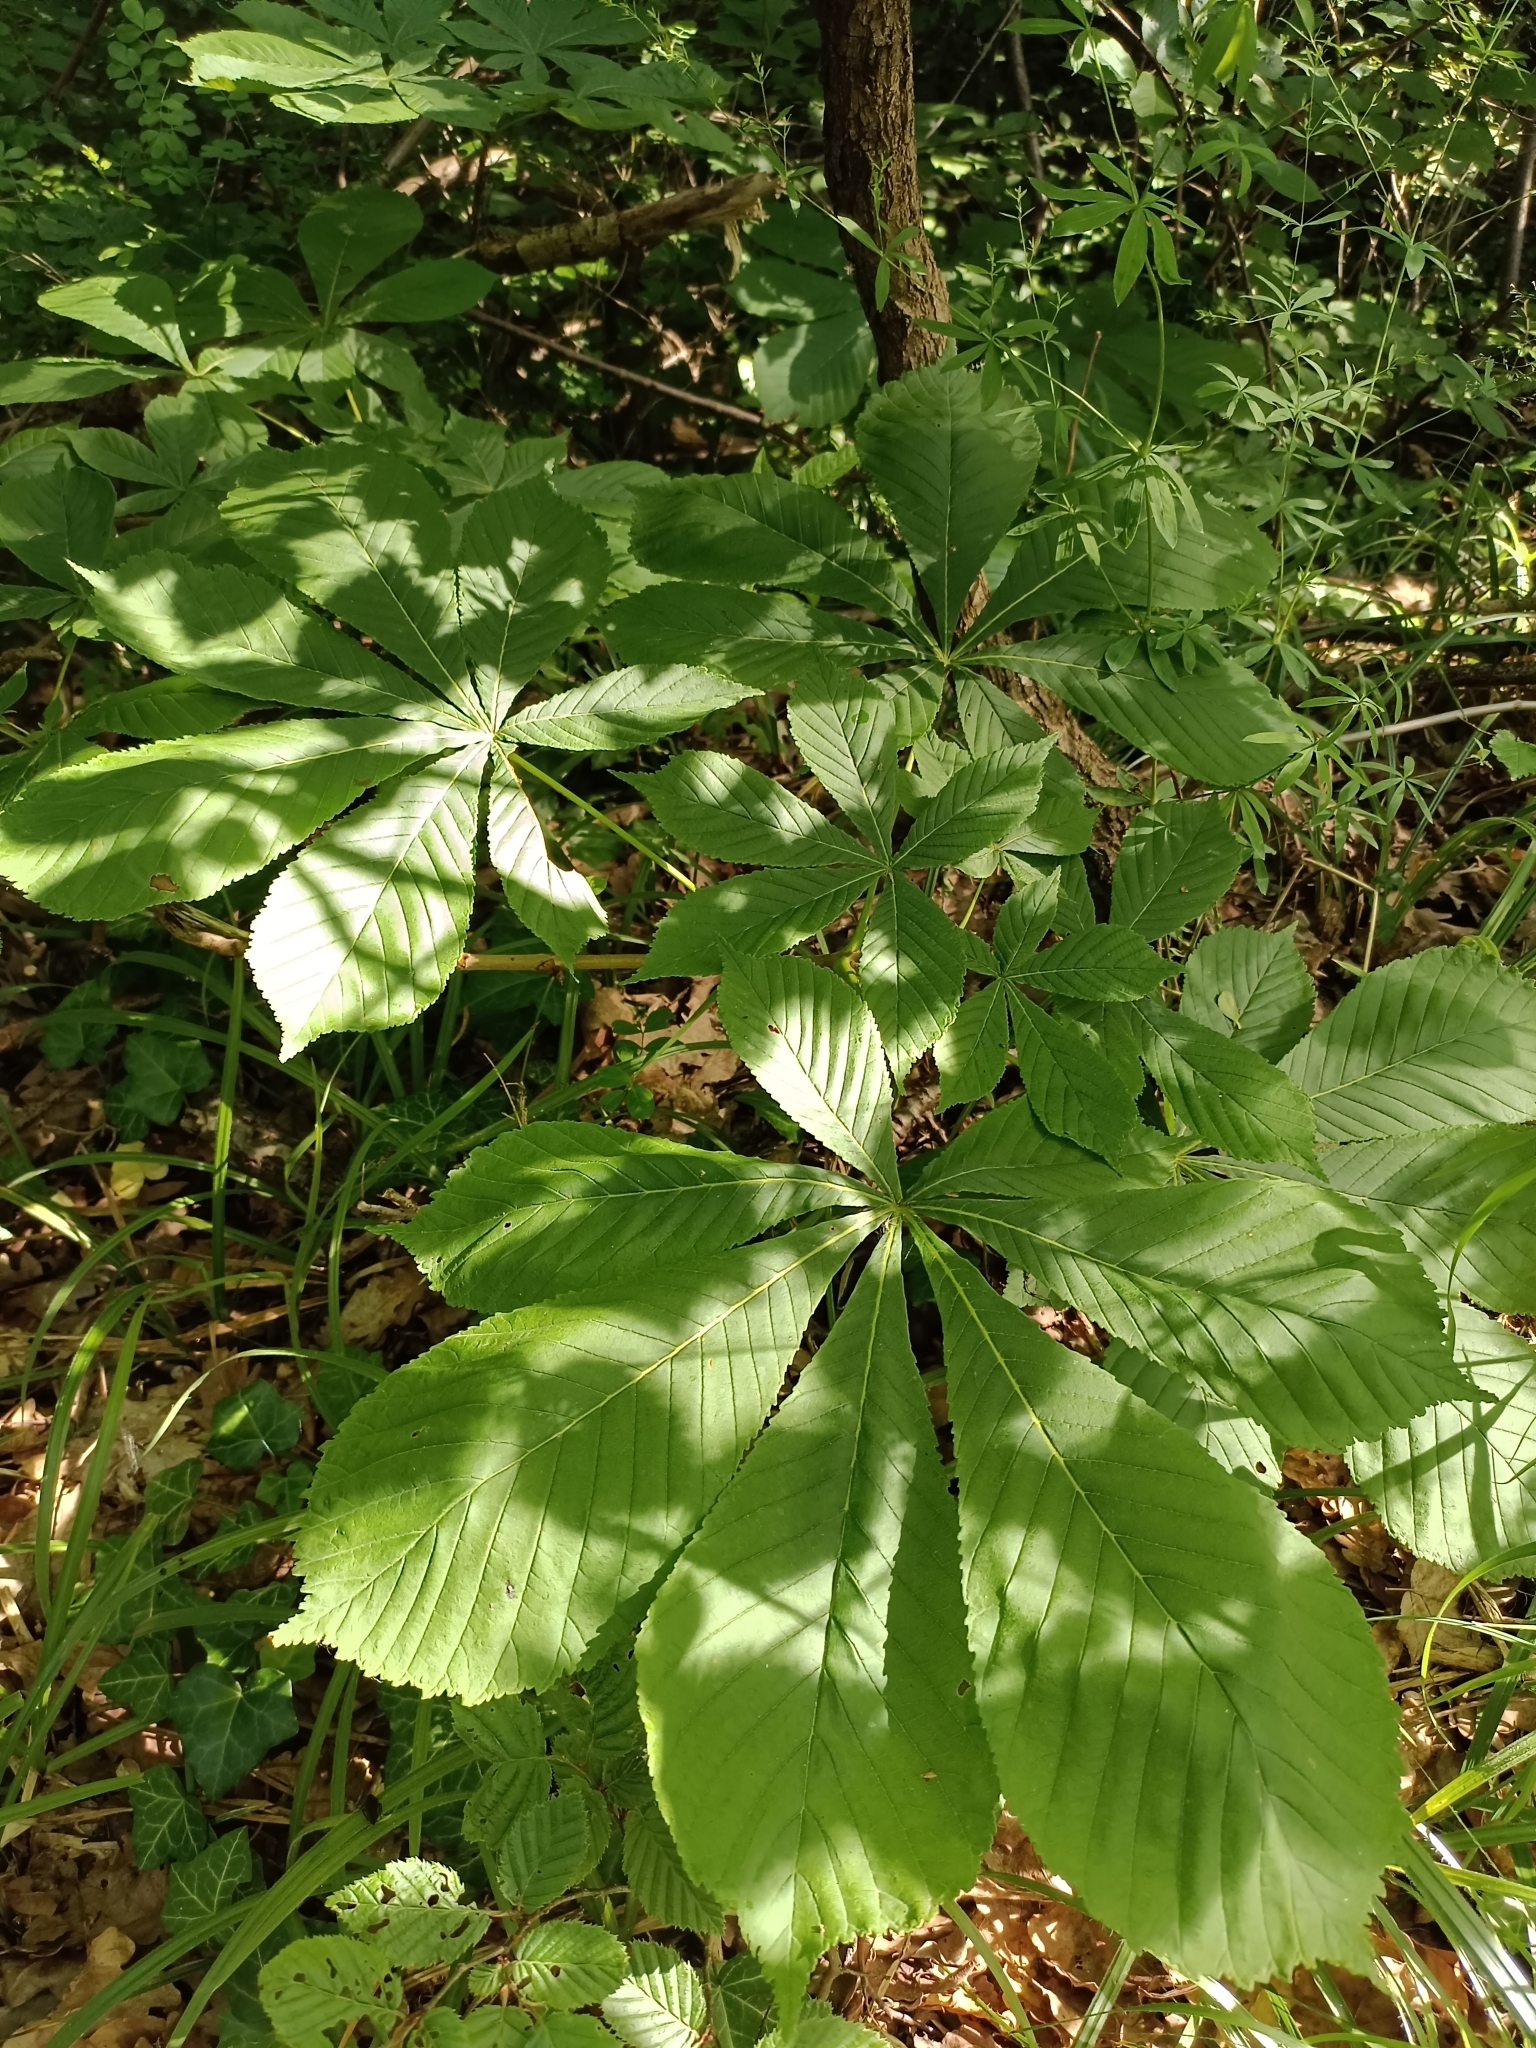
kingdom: Plantae
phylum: Tracheophyta
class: Magnoliopsida
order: Sapindales
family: Sapindaceae
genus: Aesculus
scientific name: Aesculus hippocastanum
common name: Horse-chestnut
